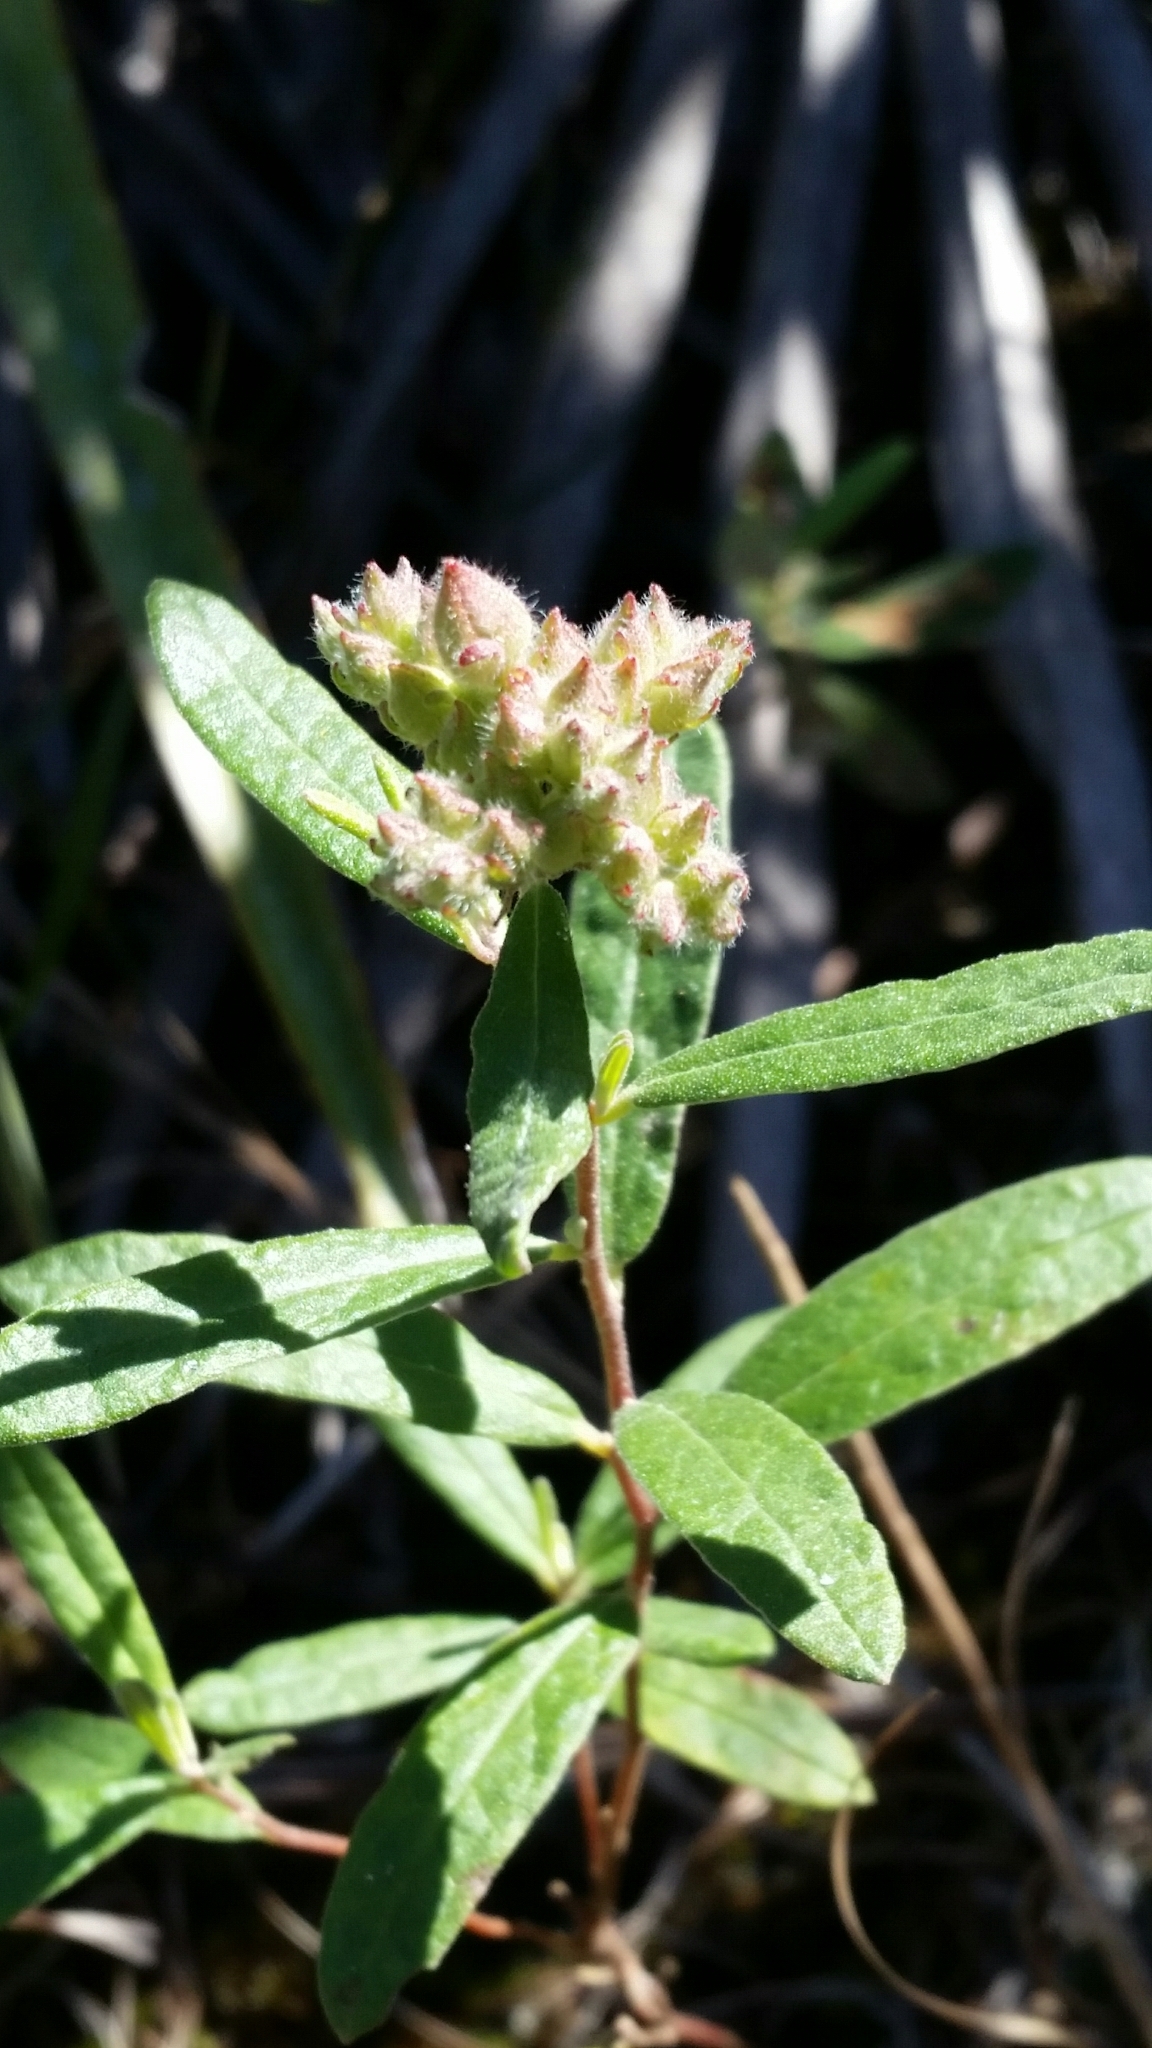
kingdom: Plantae
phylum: Tracheophyta
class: Magnoliopsida
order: Malvales
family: Cistaceae
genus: Crocanthemum
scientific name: Crocanthemum corymbosum
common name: Pinebarren sun-rose
